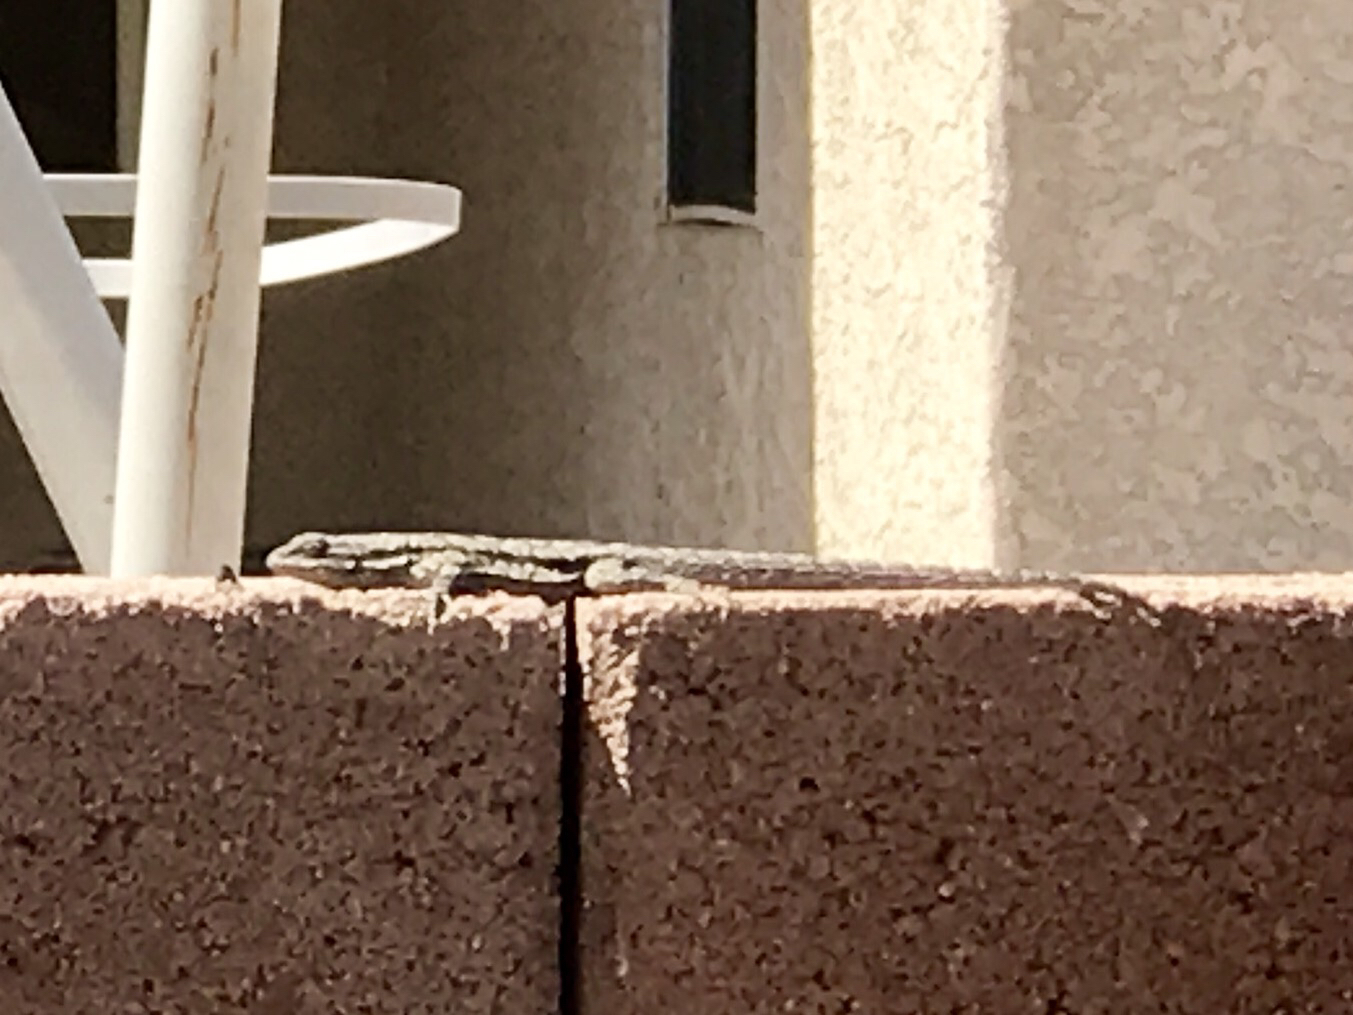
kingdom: Animalia
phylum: Chordata
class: Squamata
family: Phrynosomatidae
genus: Urosaurus
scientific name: Urosaurus ornatus
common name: Ornate tree lizard
